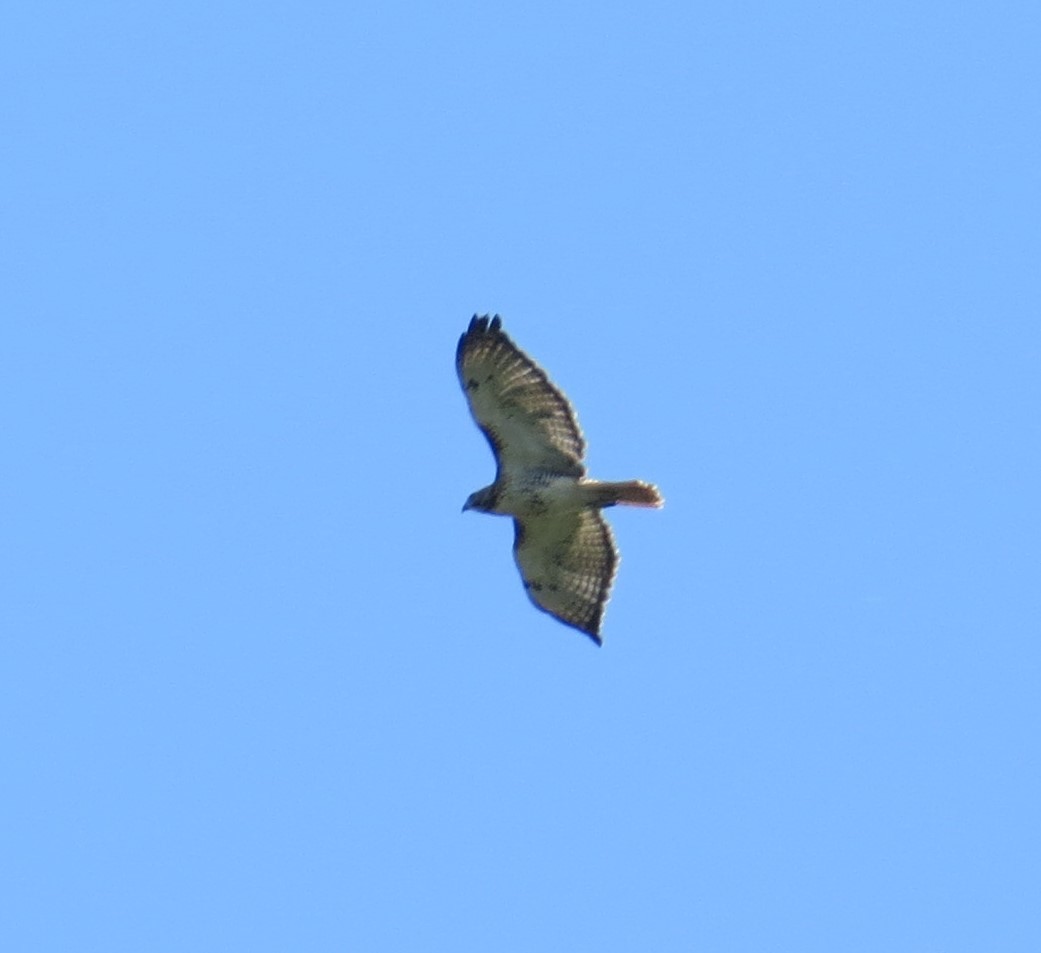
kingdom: Animalia
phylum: Chordata
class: Aves
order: Accipitriformes
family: Accipitridae
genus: Buteo
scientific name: Buteo jamaicensis
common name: Red-tailed hawk
